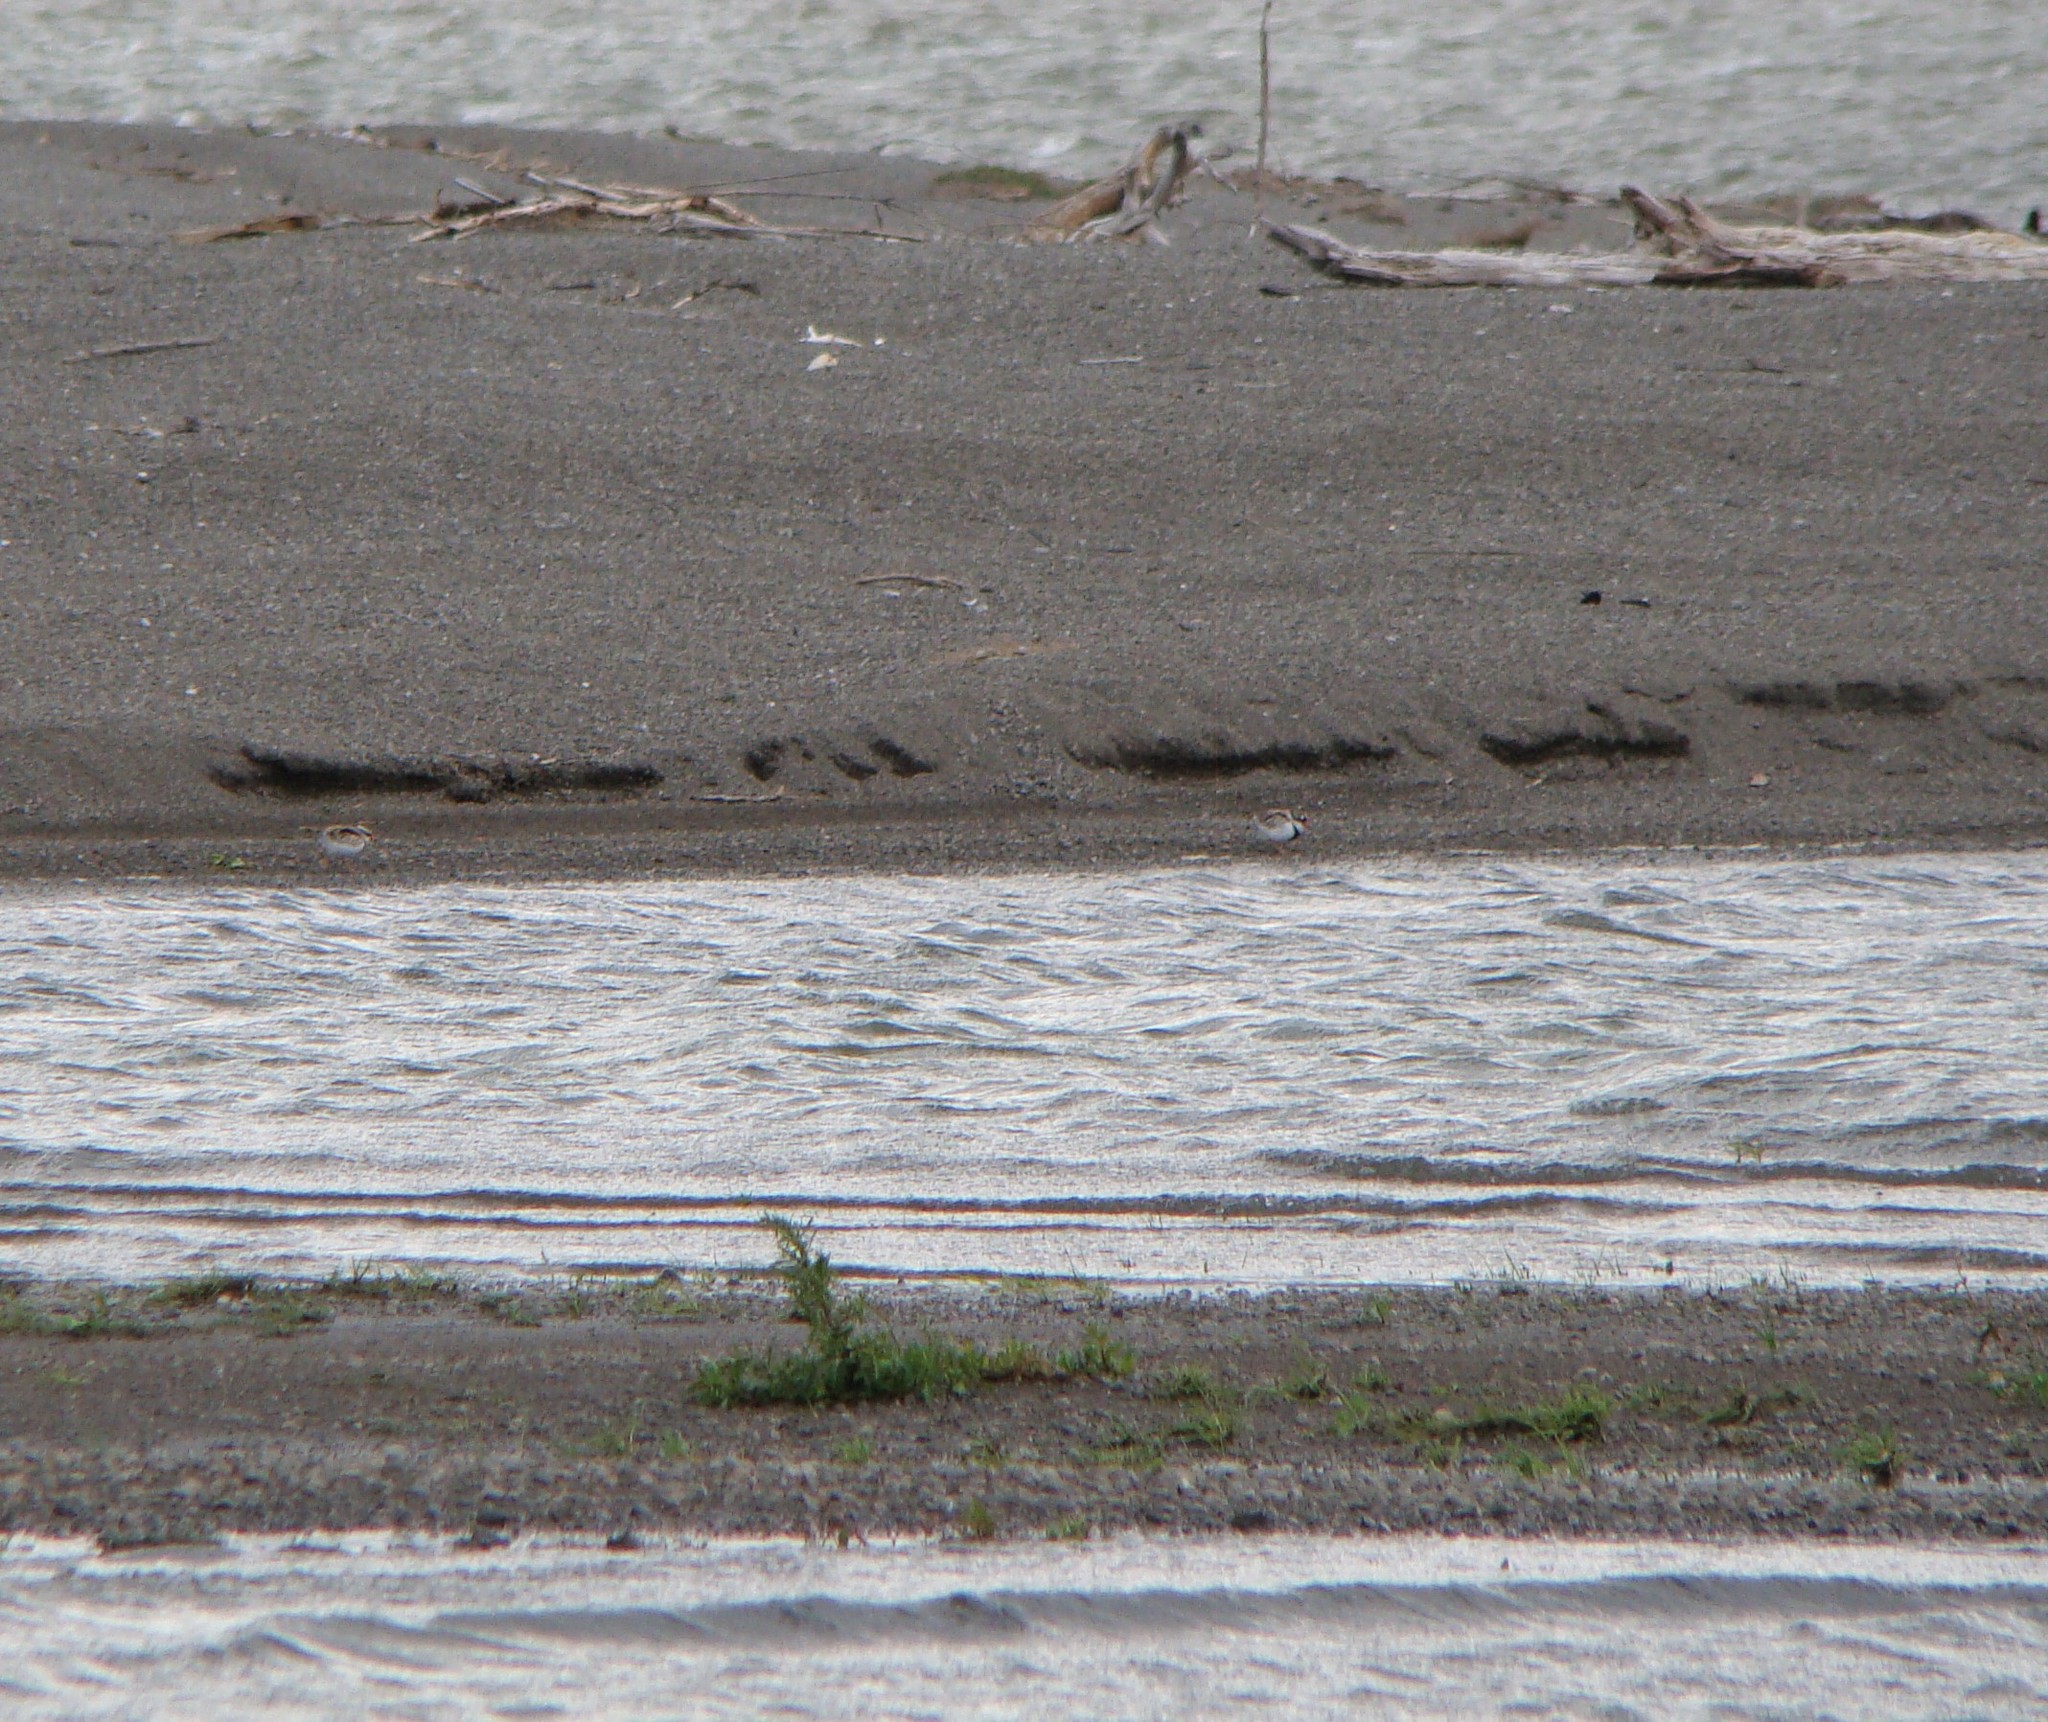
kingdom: Animalia
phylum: Chordata
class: Aves
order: Charadriiformes
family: Charadriidae
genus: Elseyornis
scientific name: Elseyornis melanops
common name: Black-fronted dotterel
